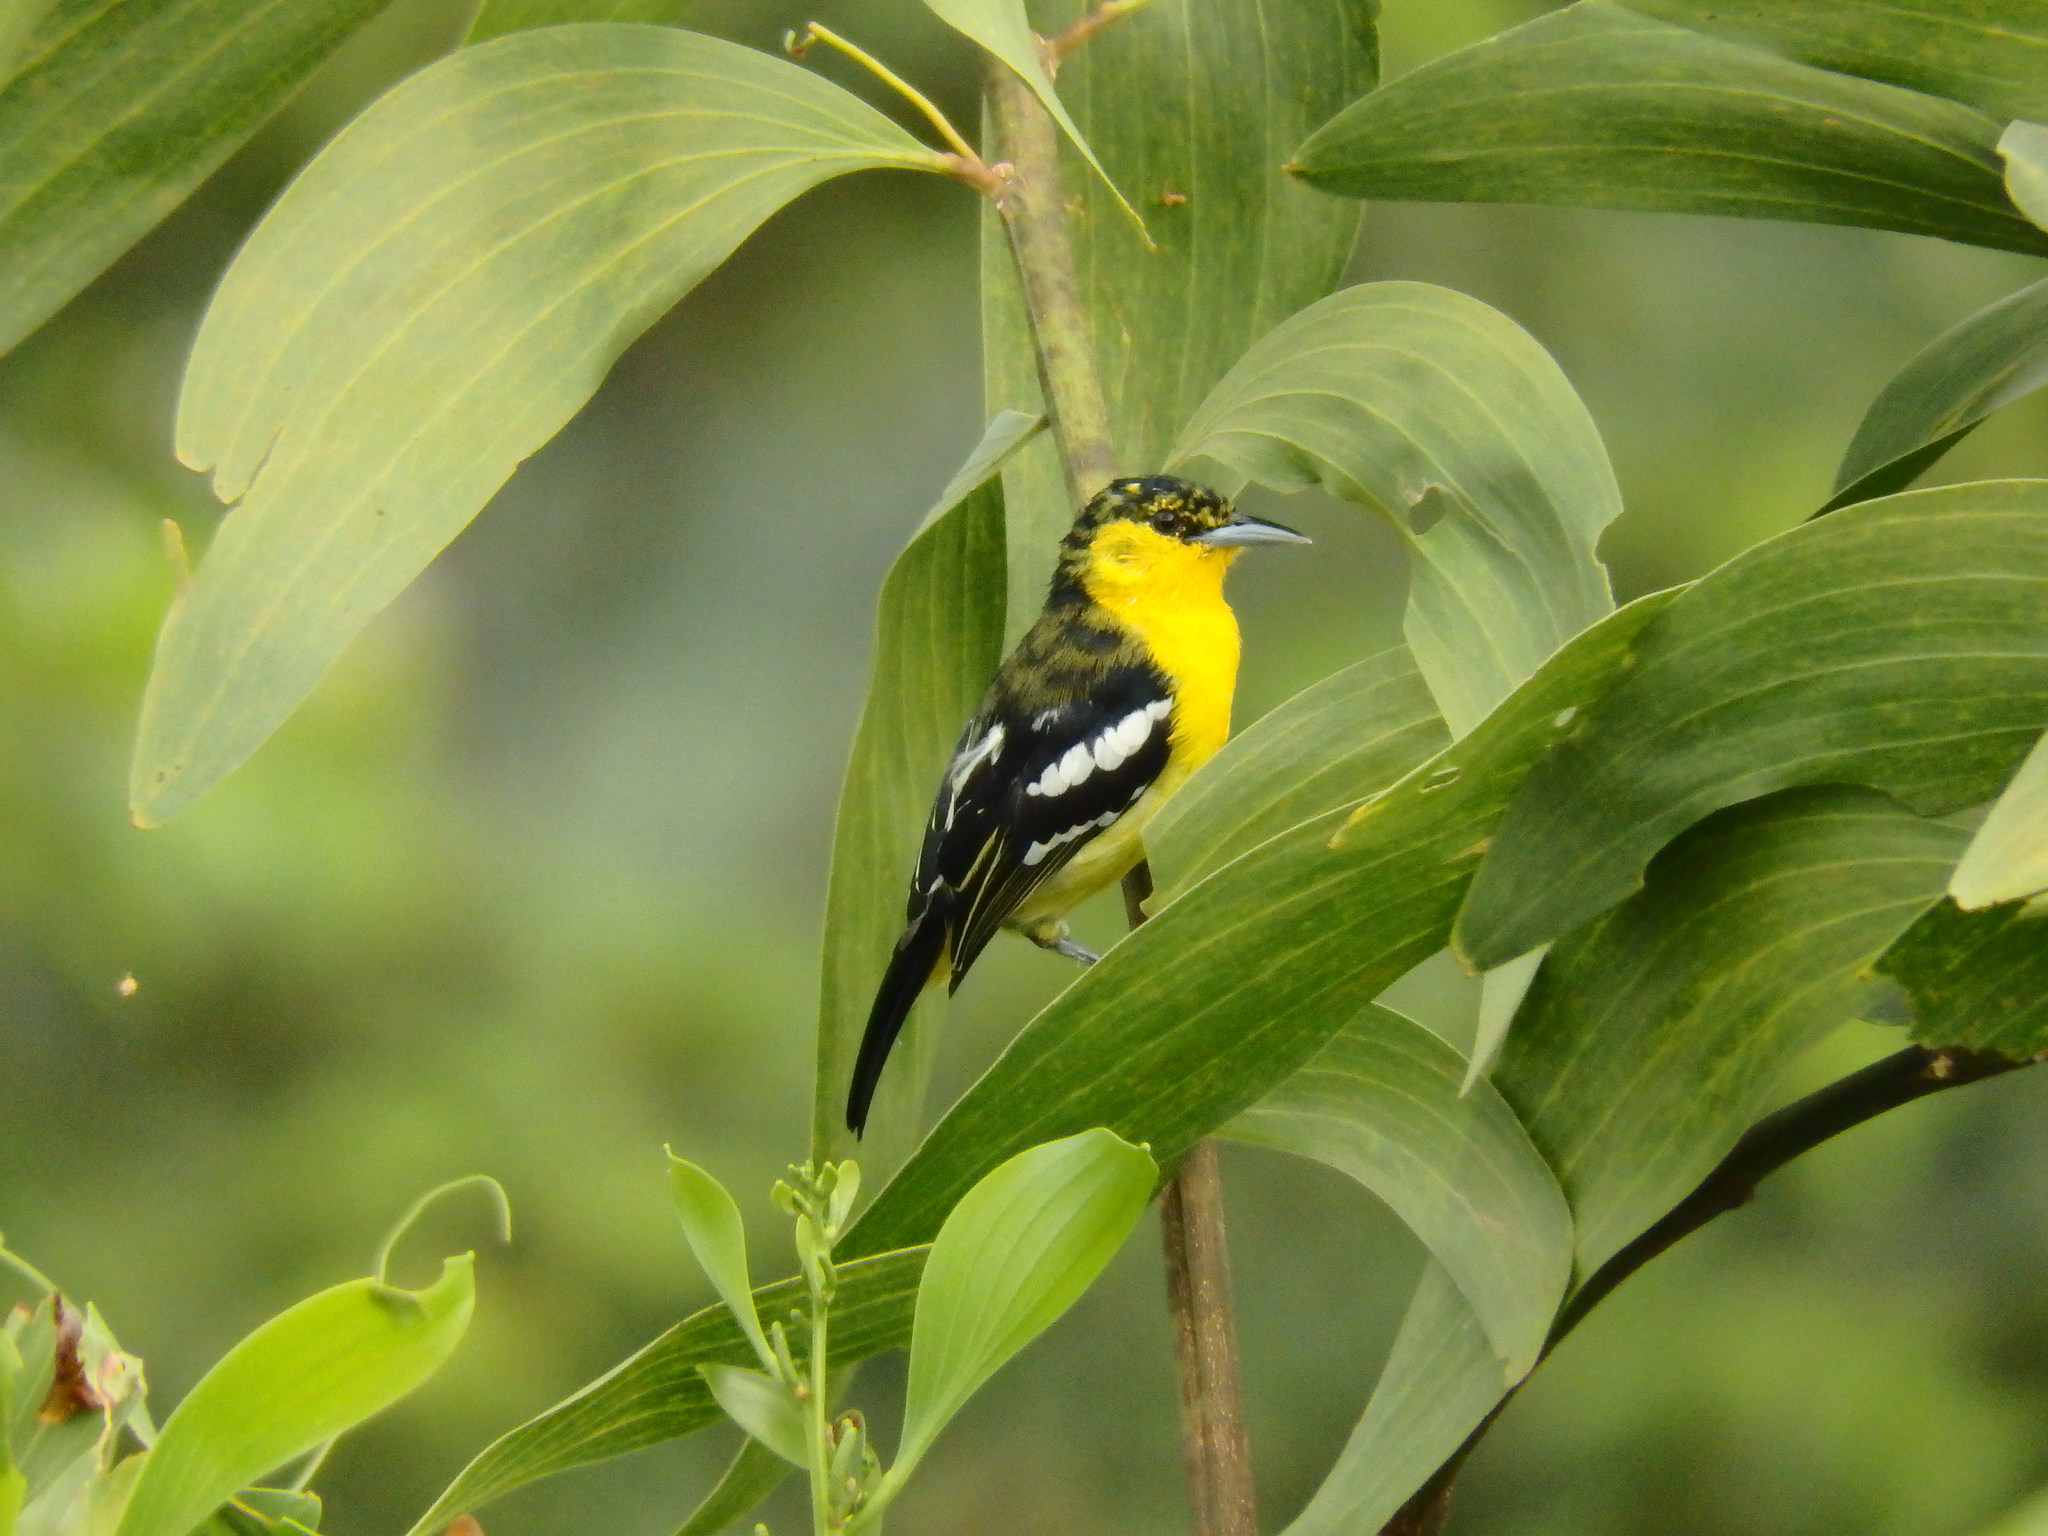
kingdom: Animalia
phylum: Chordata
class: Aves
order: Passeriformes
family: Aegithinidae
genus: Aegithina
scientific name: Aegithina tiphia
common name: Common iora
